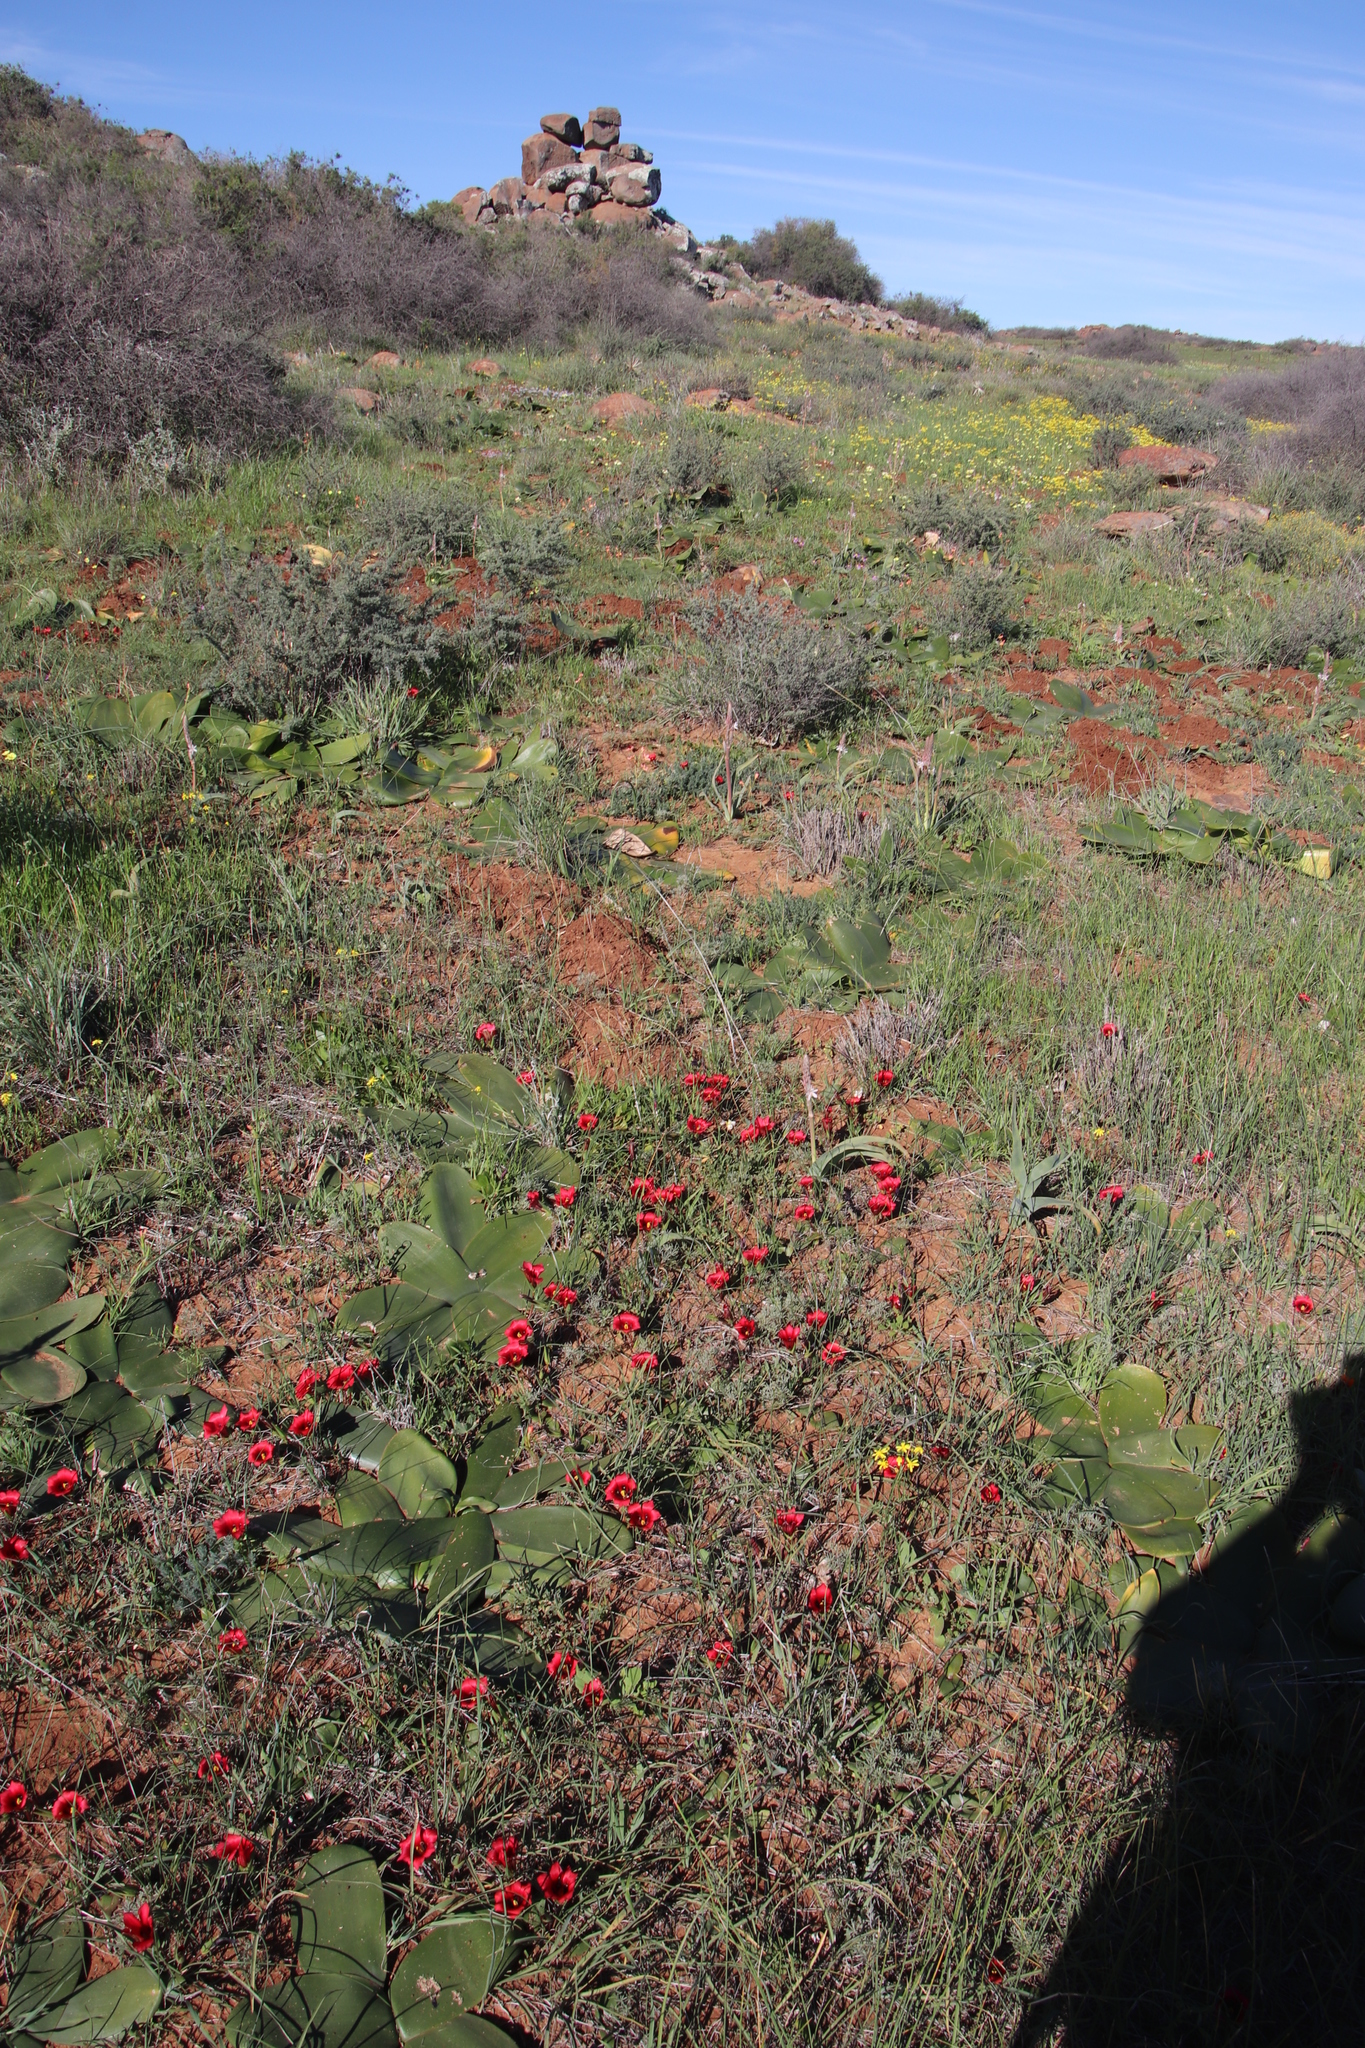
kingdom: Plantae
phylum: Tracheophyta
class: Liliopsida
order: Asparagales
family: Iridaceae
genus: Romulea
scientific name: Romulea monadelpha
